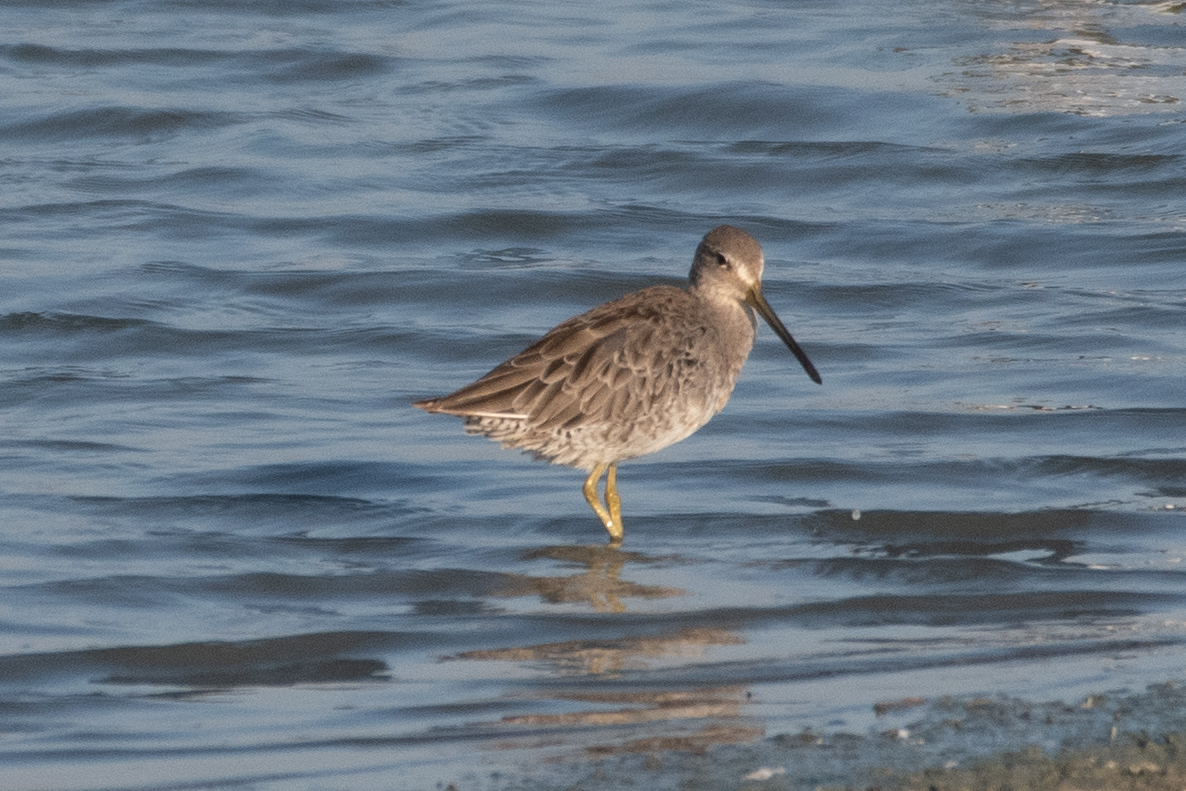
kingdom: Animalia
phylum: Chordata
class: Aves
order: Charadriiformes
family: Scolopacidae
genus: Limnodromus
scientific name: Limnodromus scolopaceus
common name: Long-billed dowitcher
